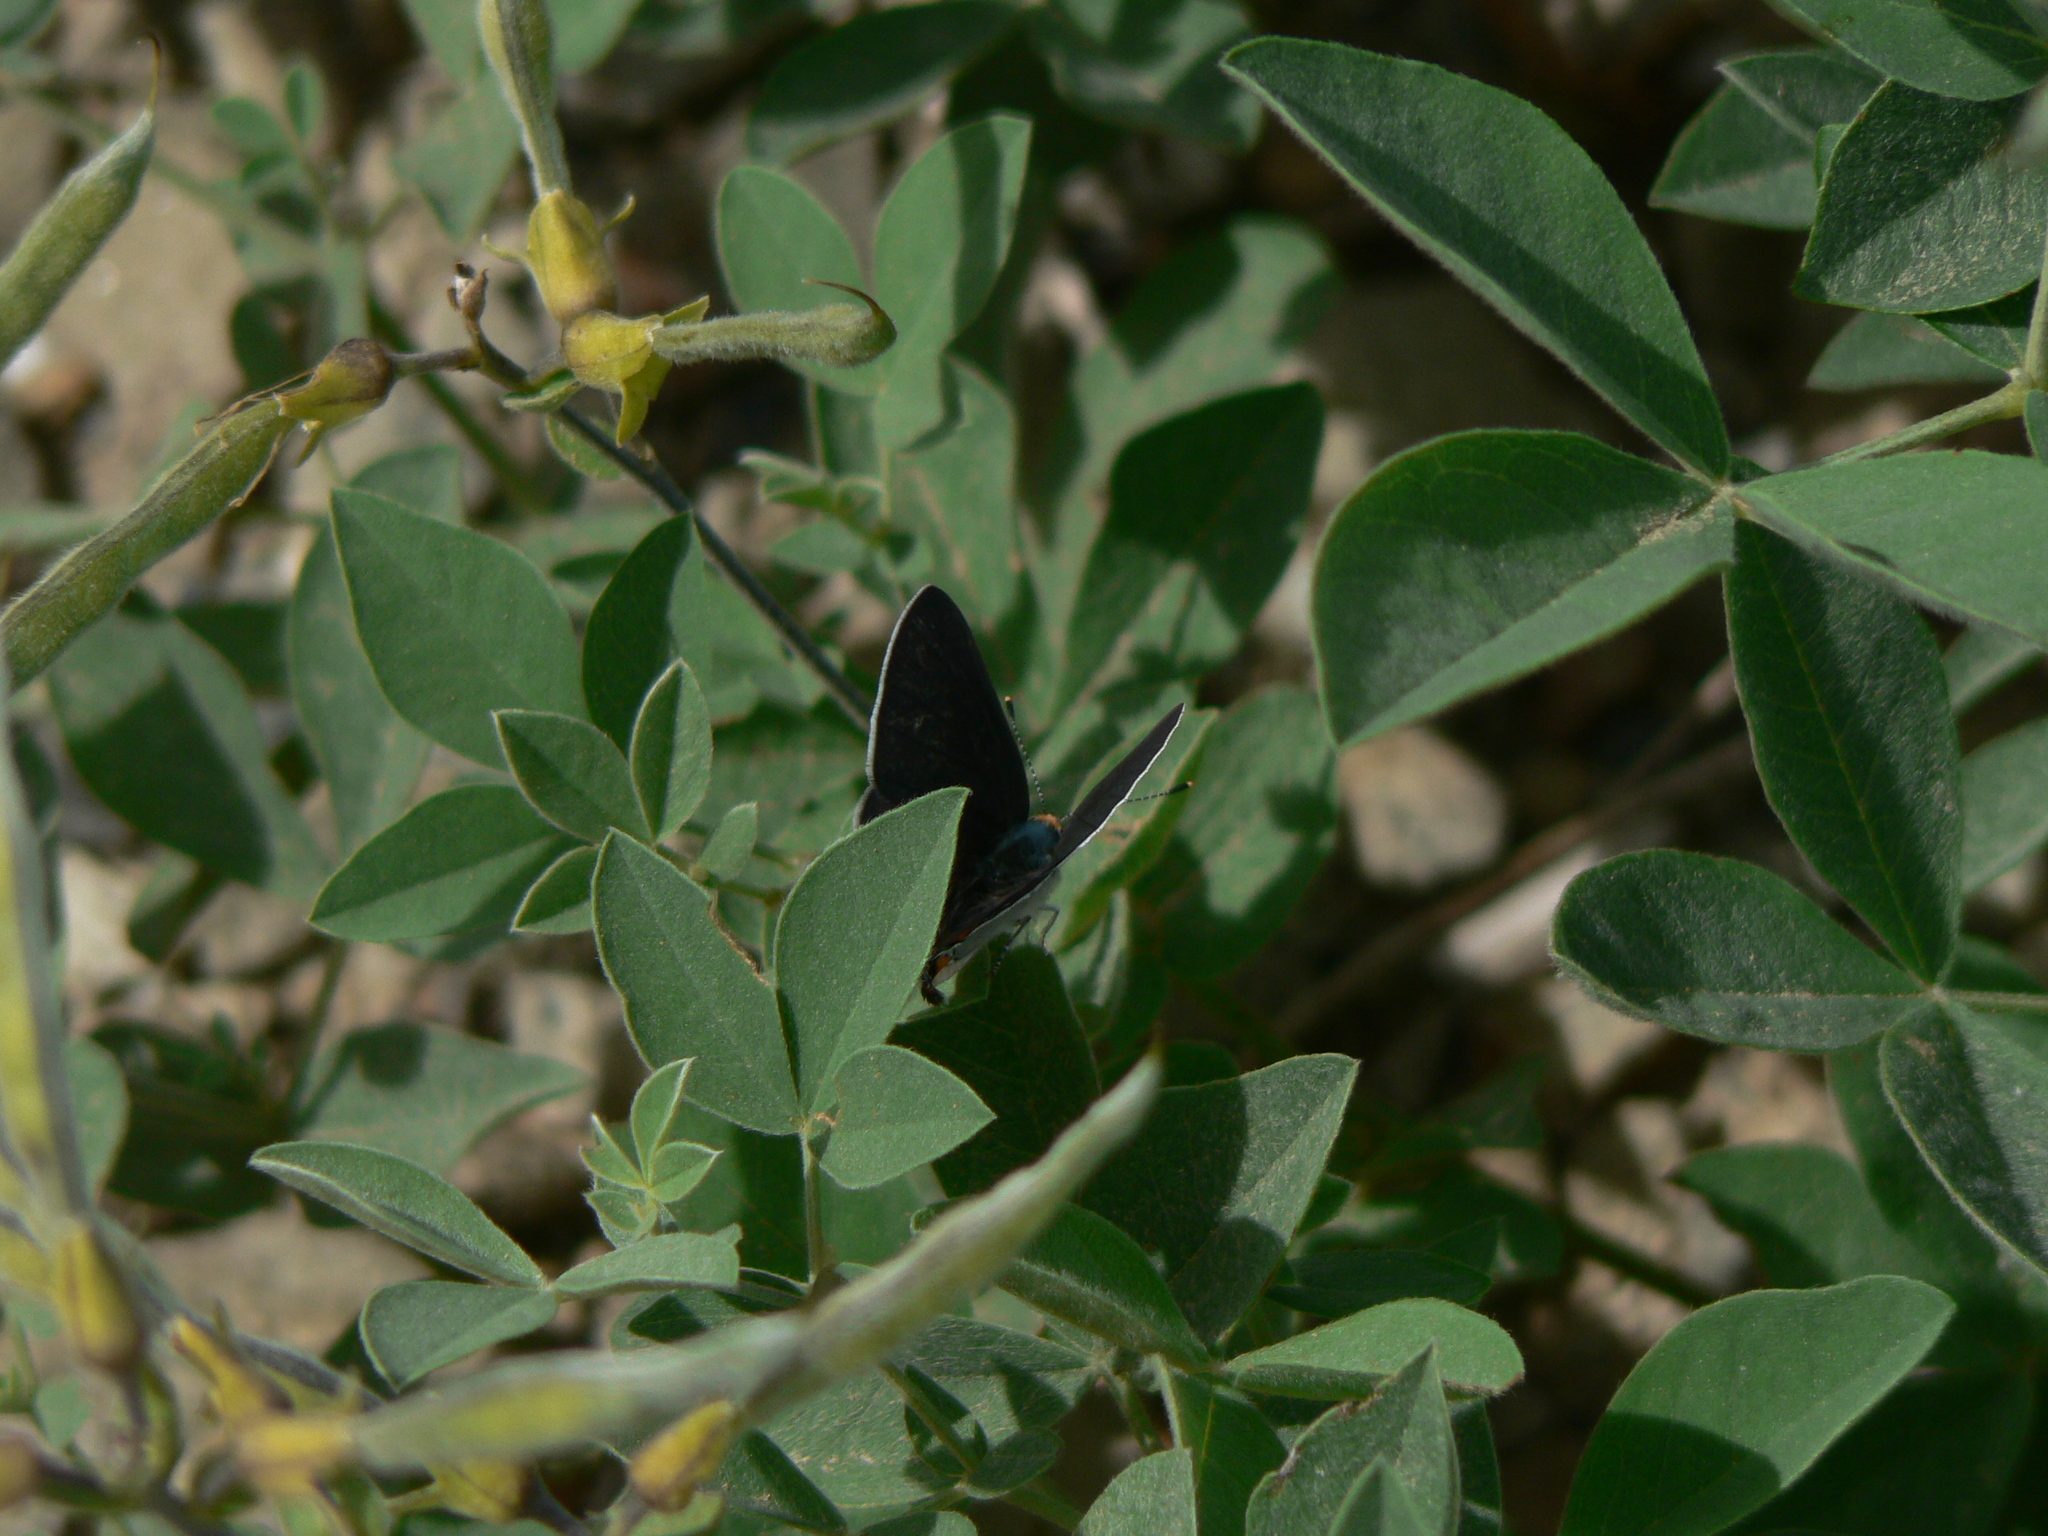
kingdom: Animalia
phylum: Arthropoda
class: Insecta
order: Lepidoptera
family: Lycaenidae
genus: Strymon
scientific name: Strymon melinus
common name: Gray hairstreak
